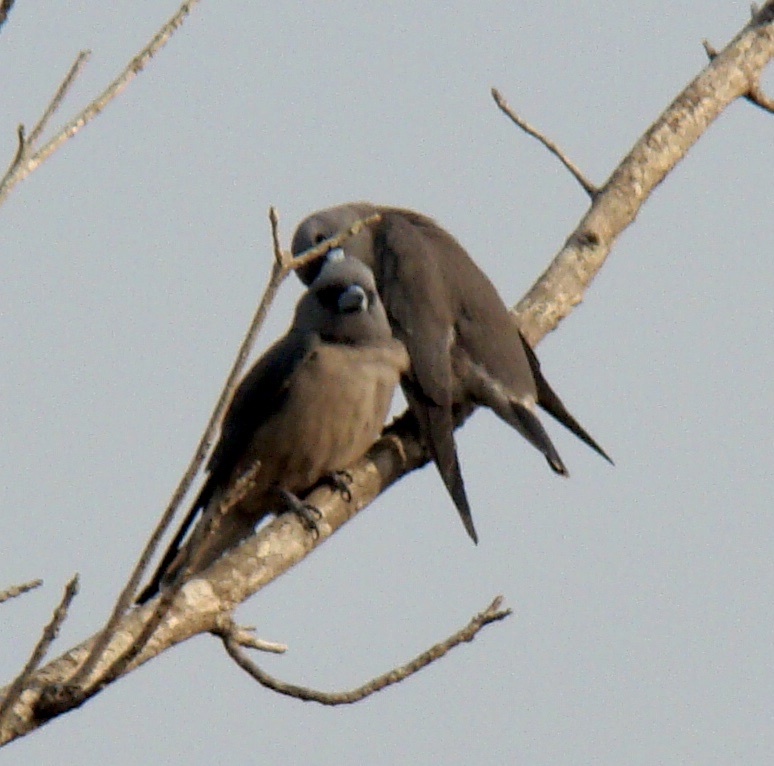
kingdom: Animalia
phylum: Chordata
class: Aves
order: Passeriformes
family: Artamidae
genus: Artamus
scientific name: Artamus fuscus
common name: Ashy woodswallow
